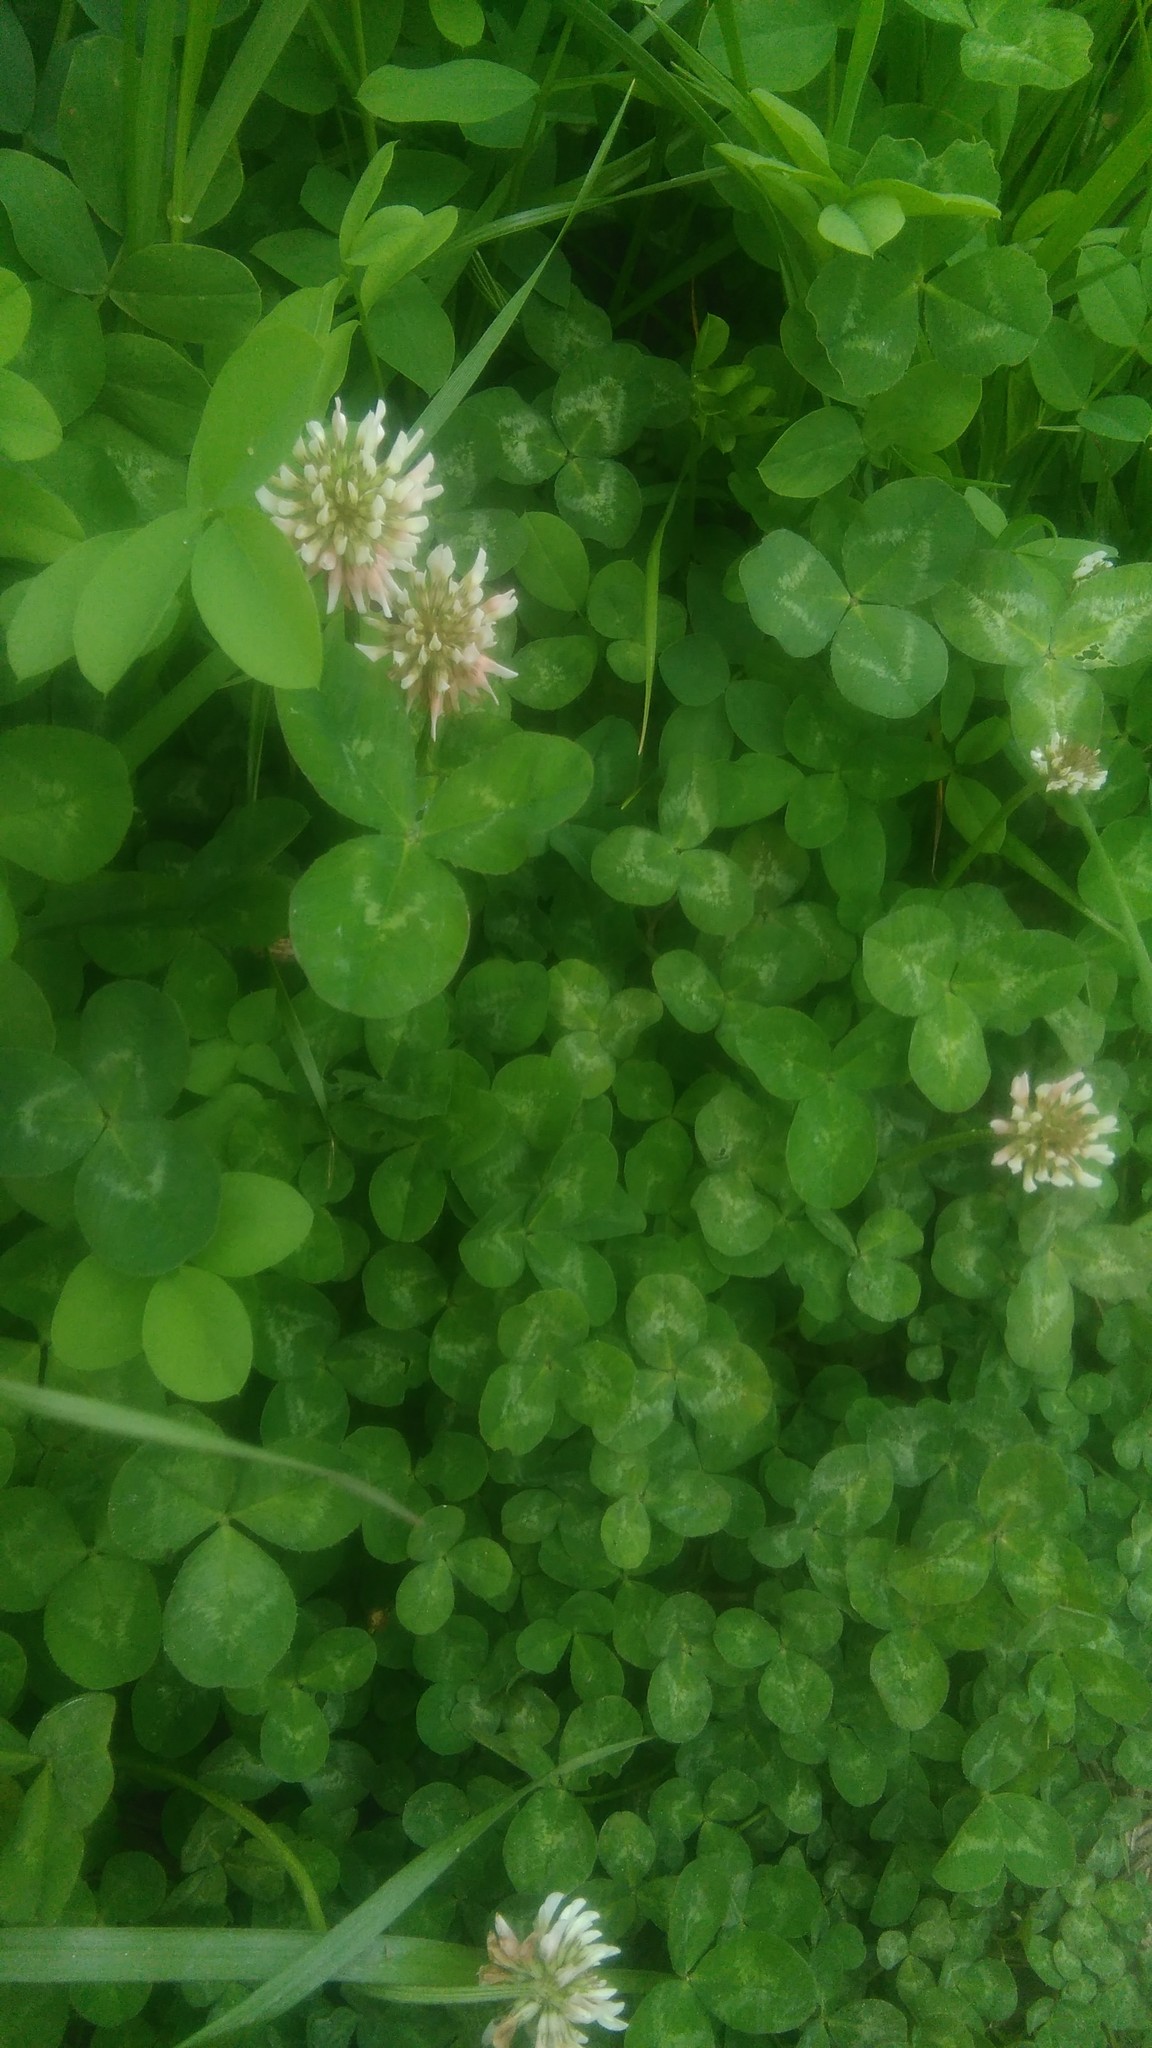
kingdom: Plantae
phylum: Tracheophyta
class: Magnoliopsida
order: Fabales
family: Fabaceae
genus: Trifolium
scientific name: Trifolium repens
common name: White clover
